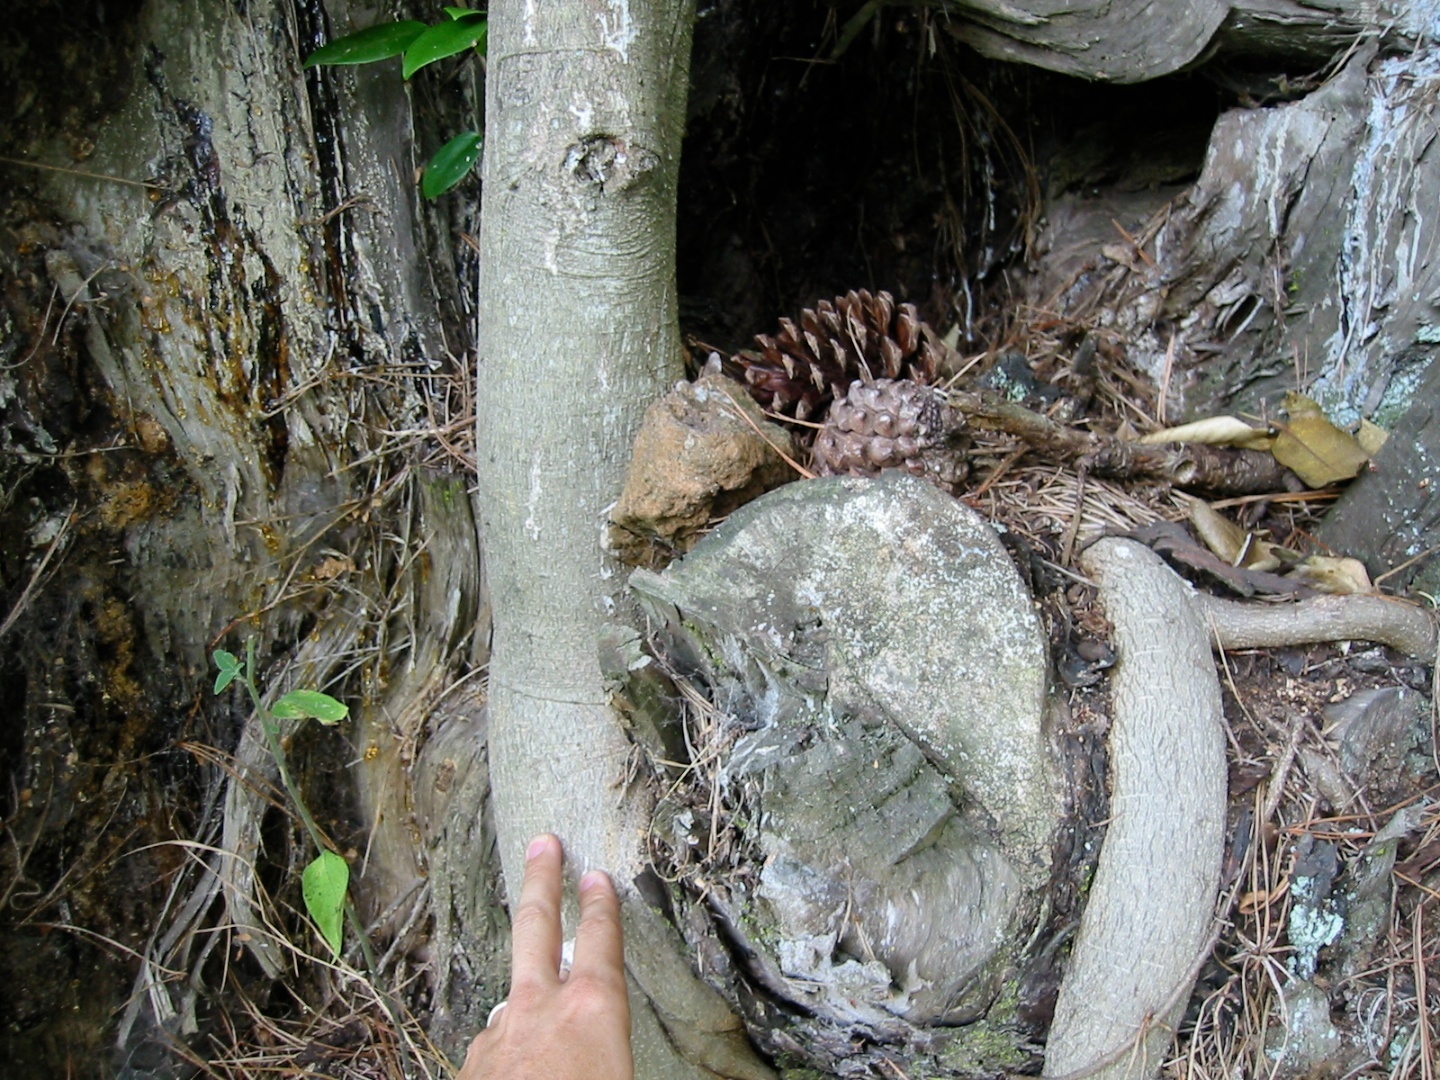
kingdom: Plantae
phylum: Tracheophyta
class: Magnoliopsida
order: Rosales
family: Moraceae
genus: Ficus
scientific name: Ficus macrophylla
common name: Moreton bay fig
